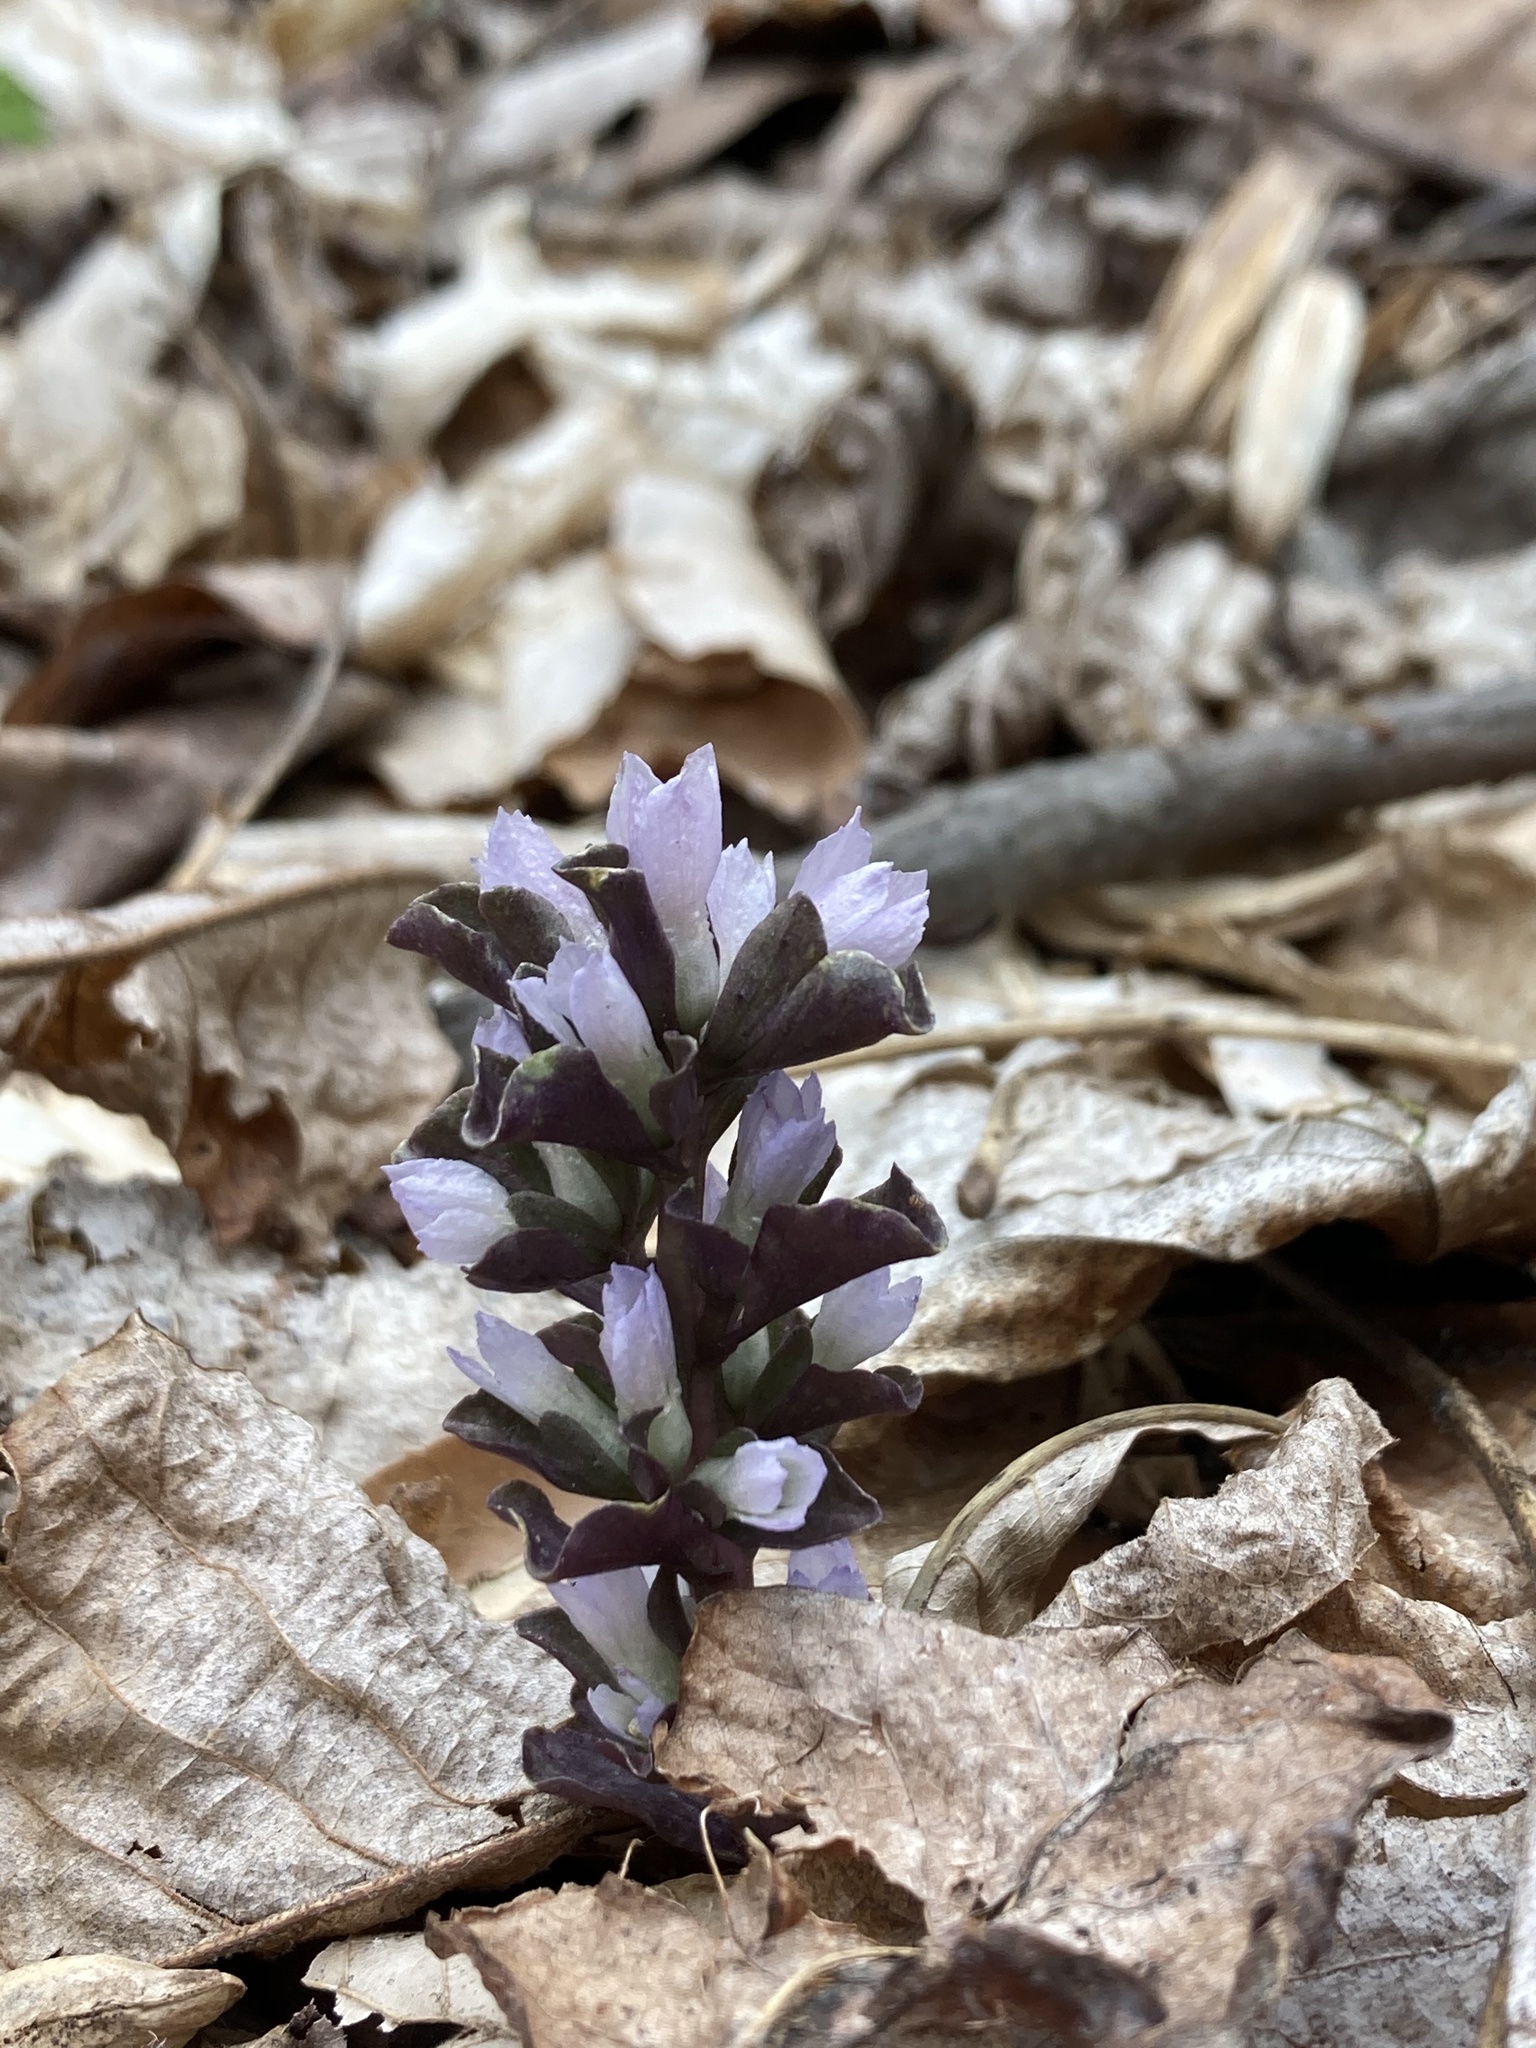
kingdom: Plantae
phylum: Tracheophyta
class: Magnoliopsida
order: Gentianales
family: Gentianaceae
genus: Obolaria
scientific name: Obolaria virginica
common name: Pennywort
